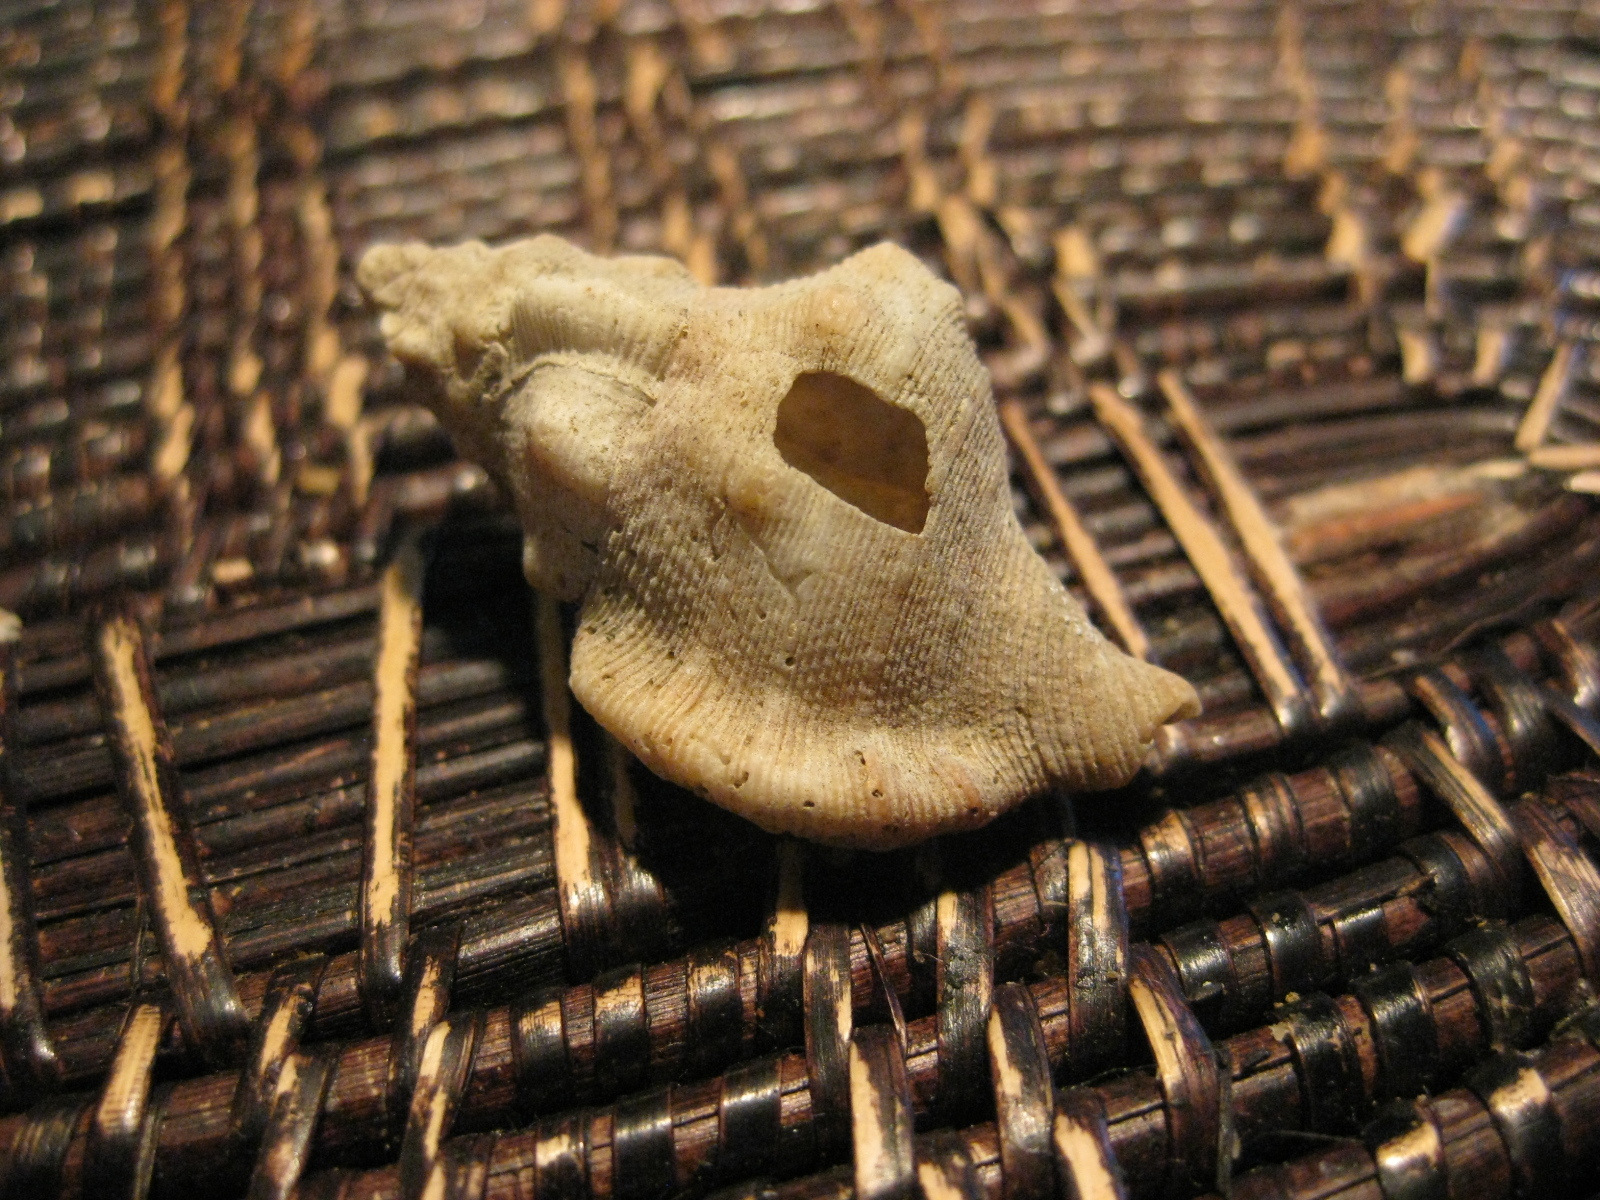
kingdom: Animalia
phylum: Mollusca
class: Gastropoda
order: Littorinimorpha
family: Cymatiidae
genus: Austrosassia
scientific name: Austrosassia parkinsonia
